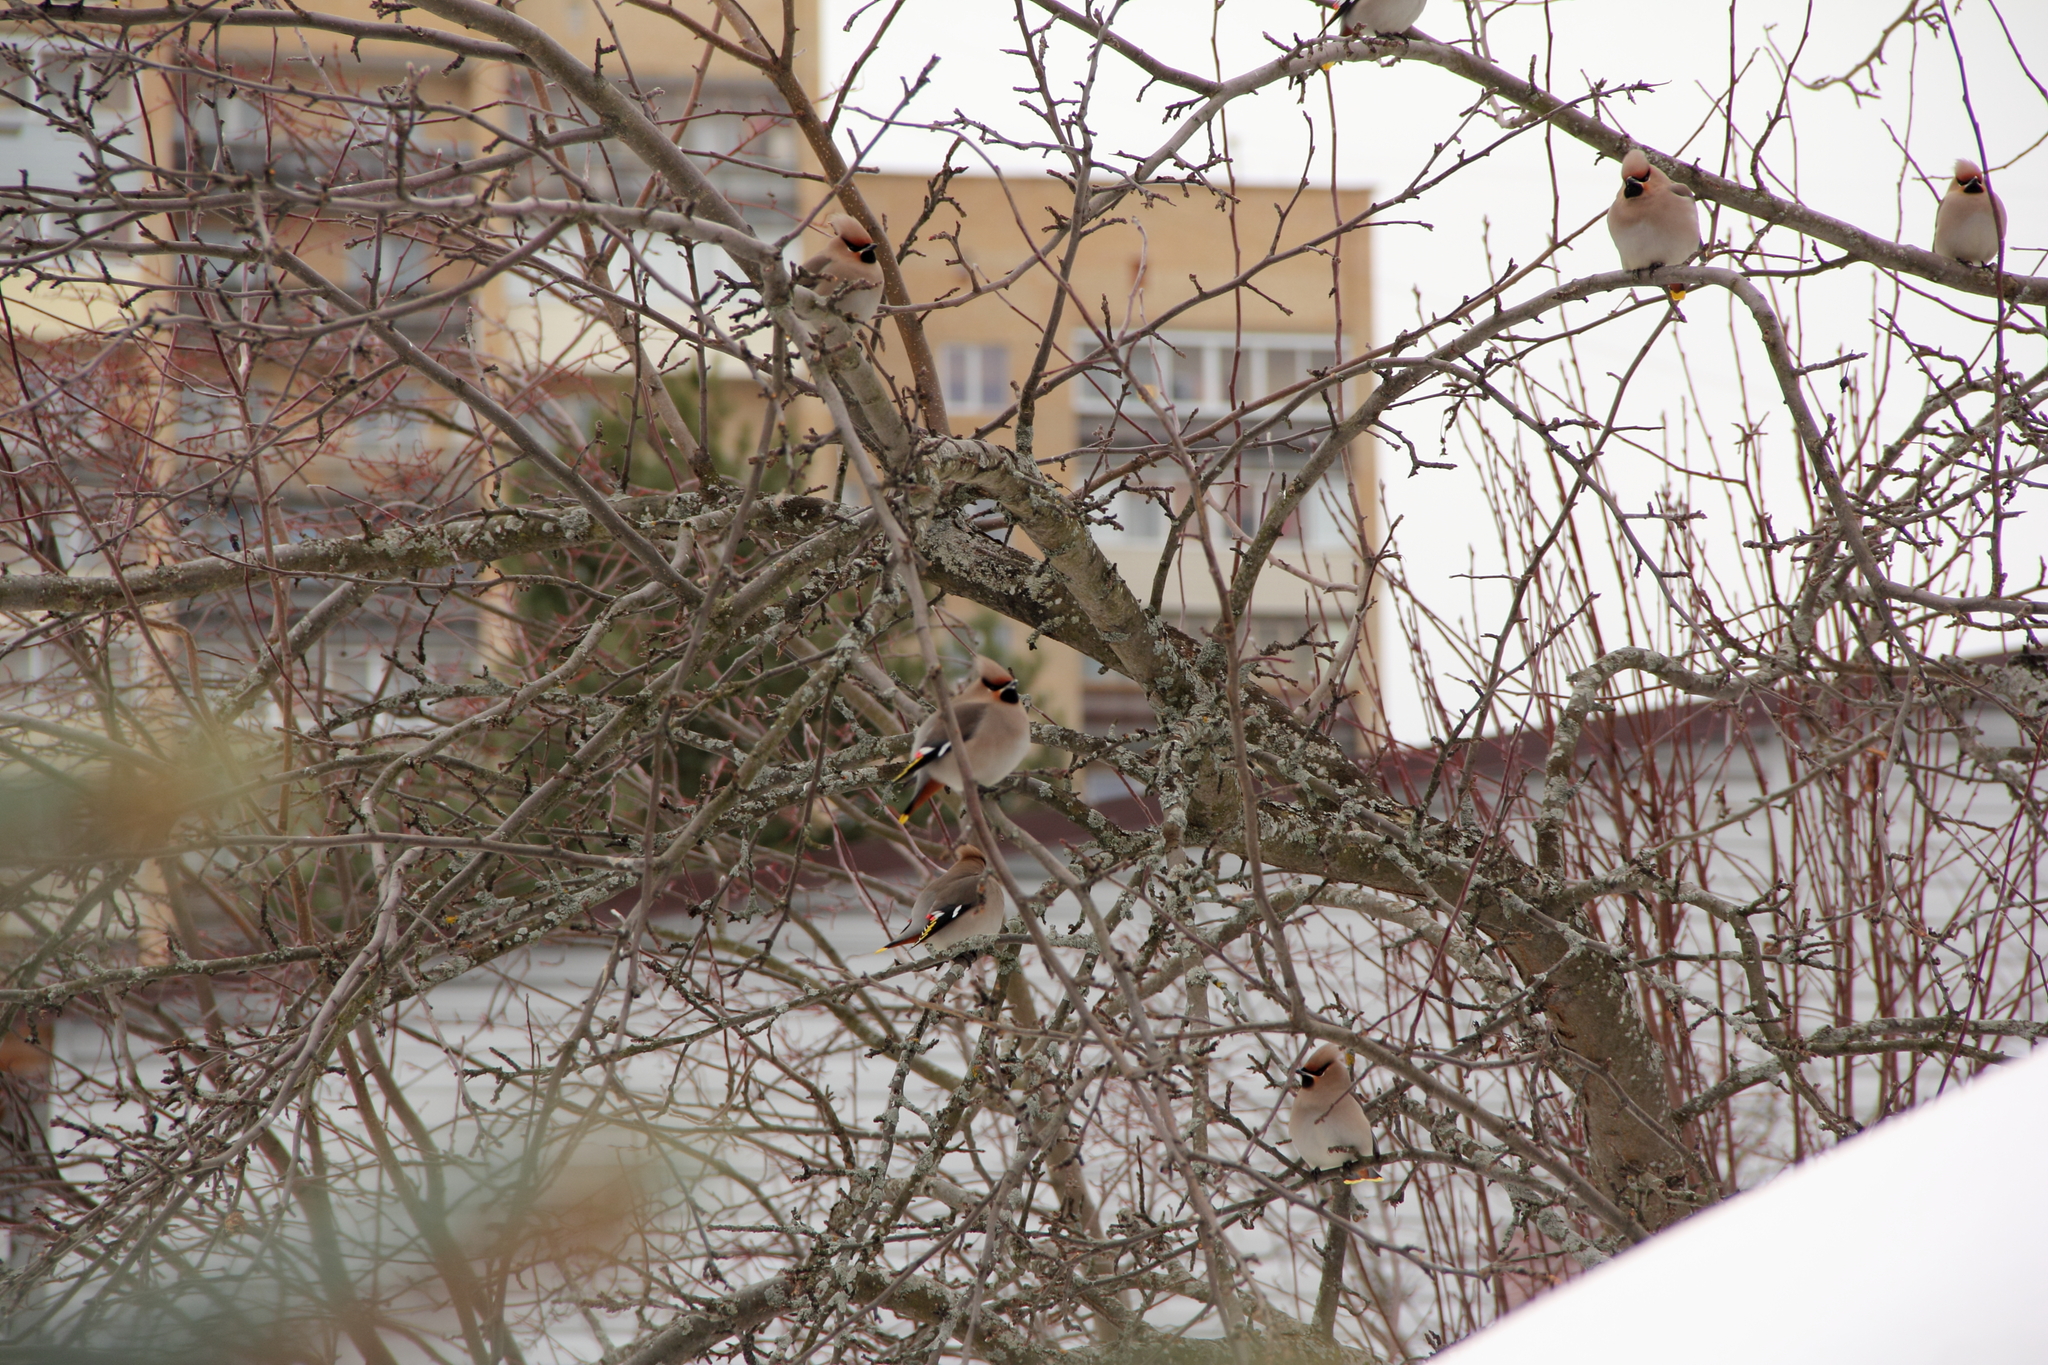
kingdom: Animalia
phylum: Chordata
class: Aves
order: Passeriformes
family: Bombycillidae
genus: Bombycilla
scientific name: Bombycilla garrulus
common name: Bohemian waxwing
